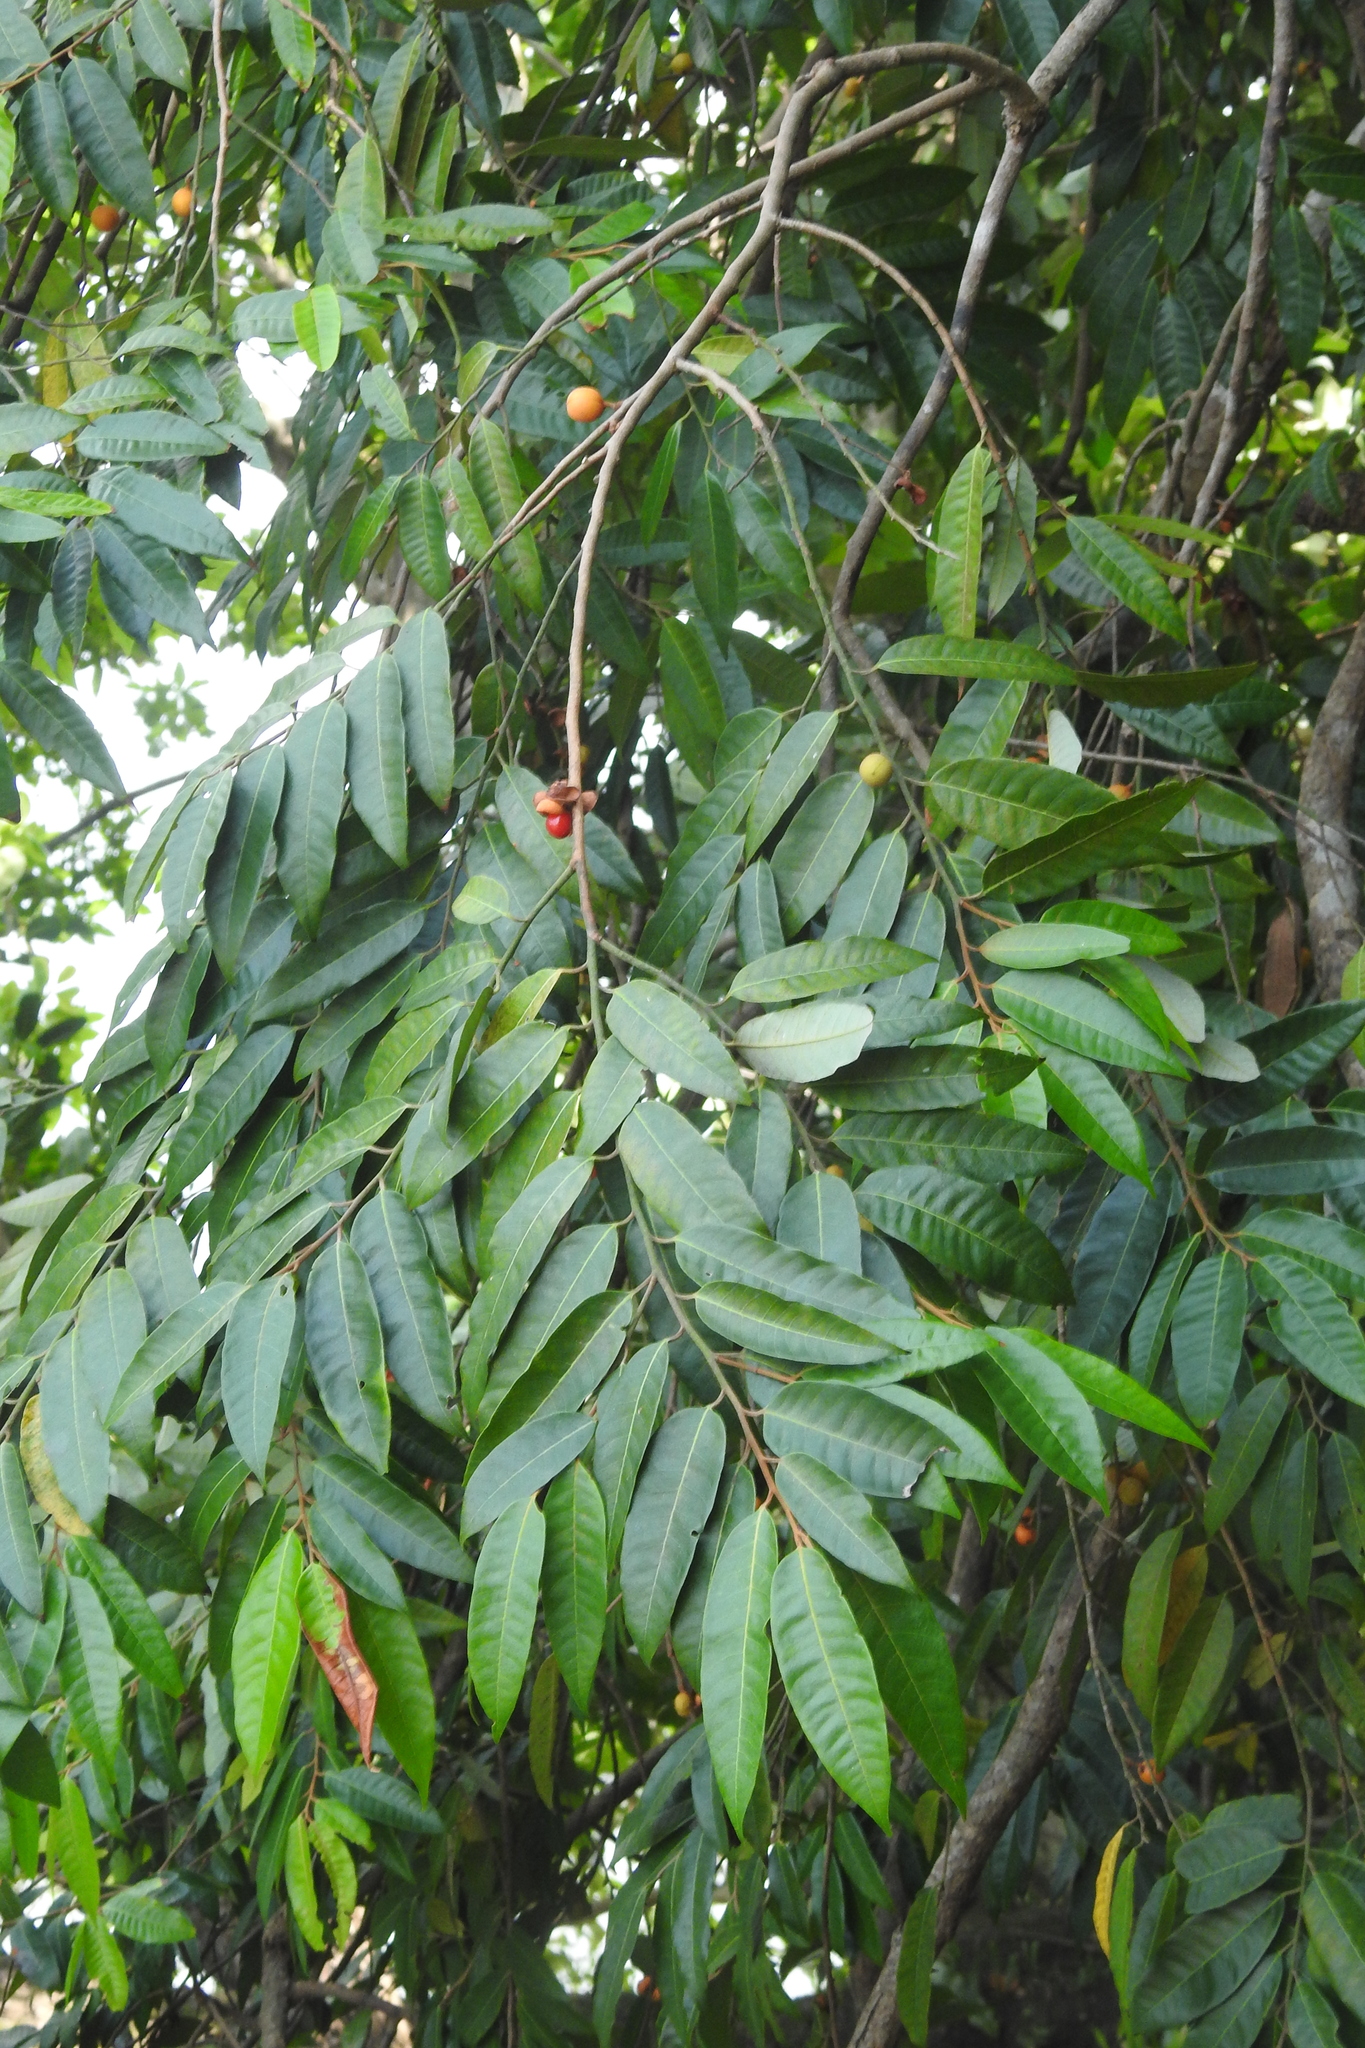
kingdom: Plantae
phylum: Tracheophyta
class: Magnoliopsida
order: Magnoliales
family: Myristicaceae
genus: Knema
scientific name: Knema globularia
